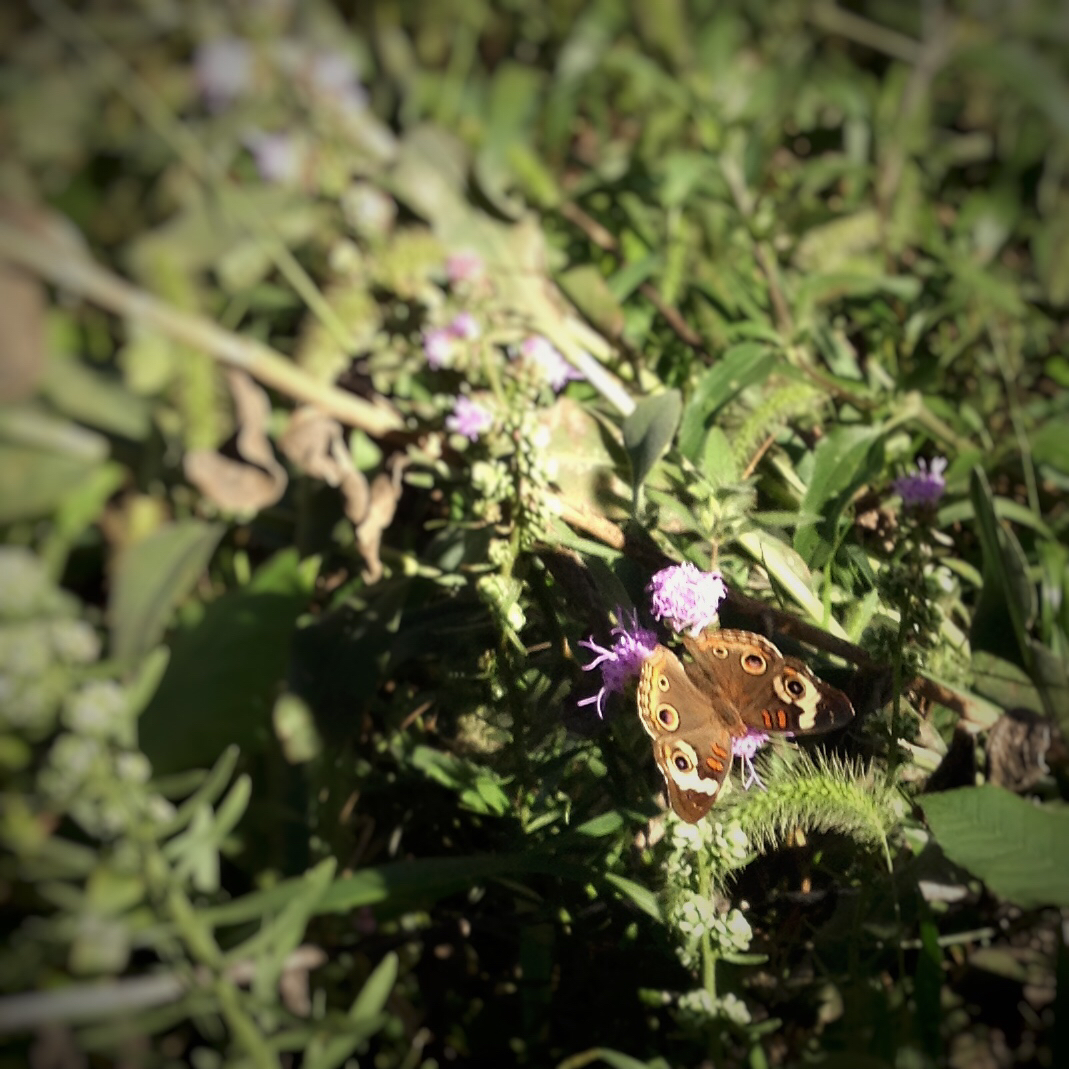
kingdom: Animalia
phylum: Arthropoda
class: Insecta
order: Lepidoptera
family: Nymphalidae
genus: Junonia
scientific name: Junonia coenia
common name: Common buckeye
